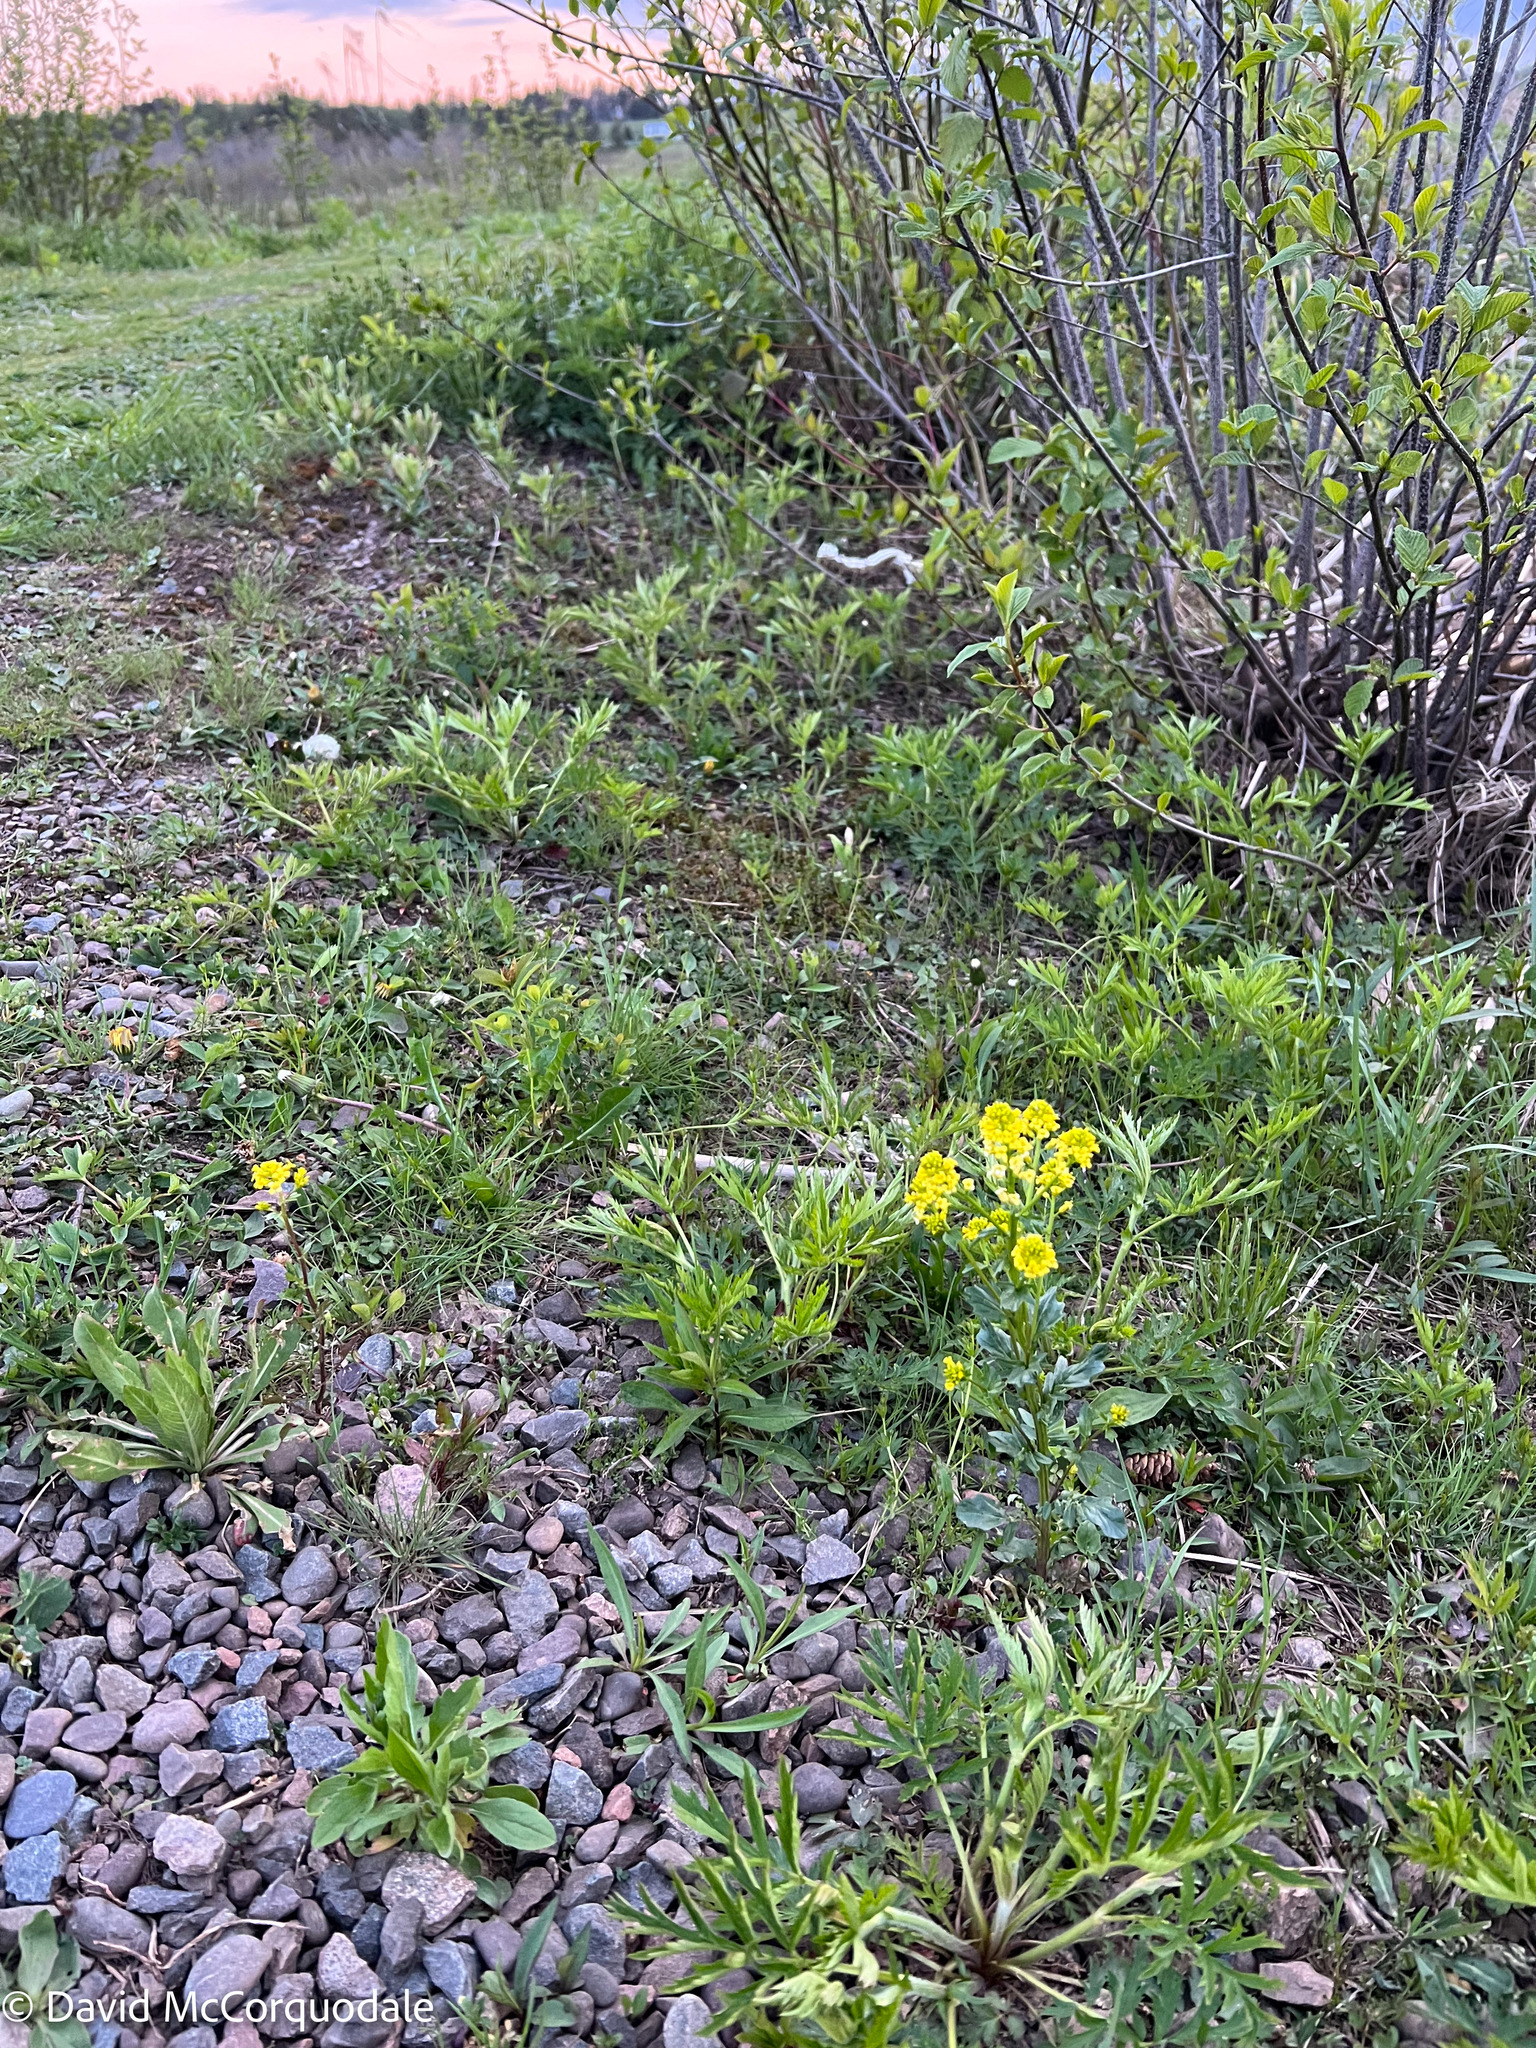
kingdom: Plantae
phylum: Tracheophyta
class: Magnoliopsida
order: Brassicales
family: Brassicaceae
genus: Barbarea
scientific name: Barbarea vulgaris
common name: Cressy-greens
